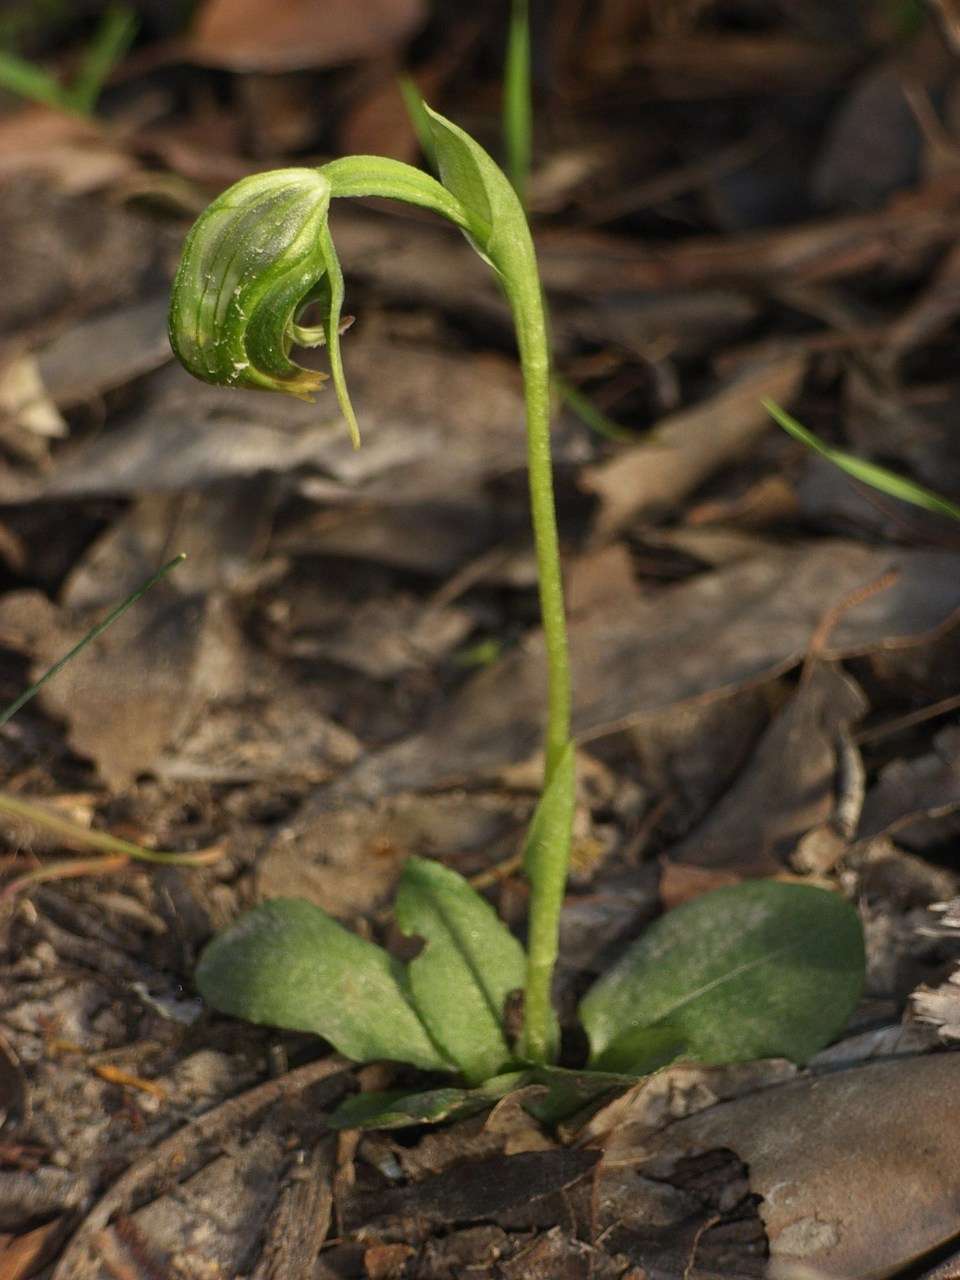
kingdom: Plantae
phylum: Tracheophyta
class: Liliopsida
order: Asparagales
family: Orchidaceae
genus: Pterostylis
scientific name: Pterostylis nutans
